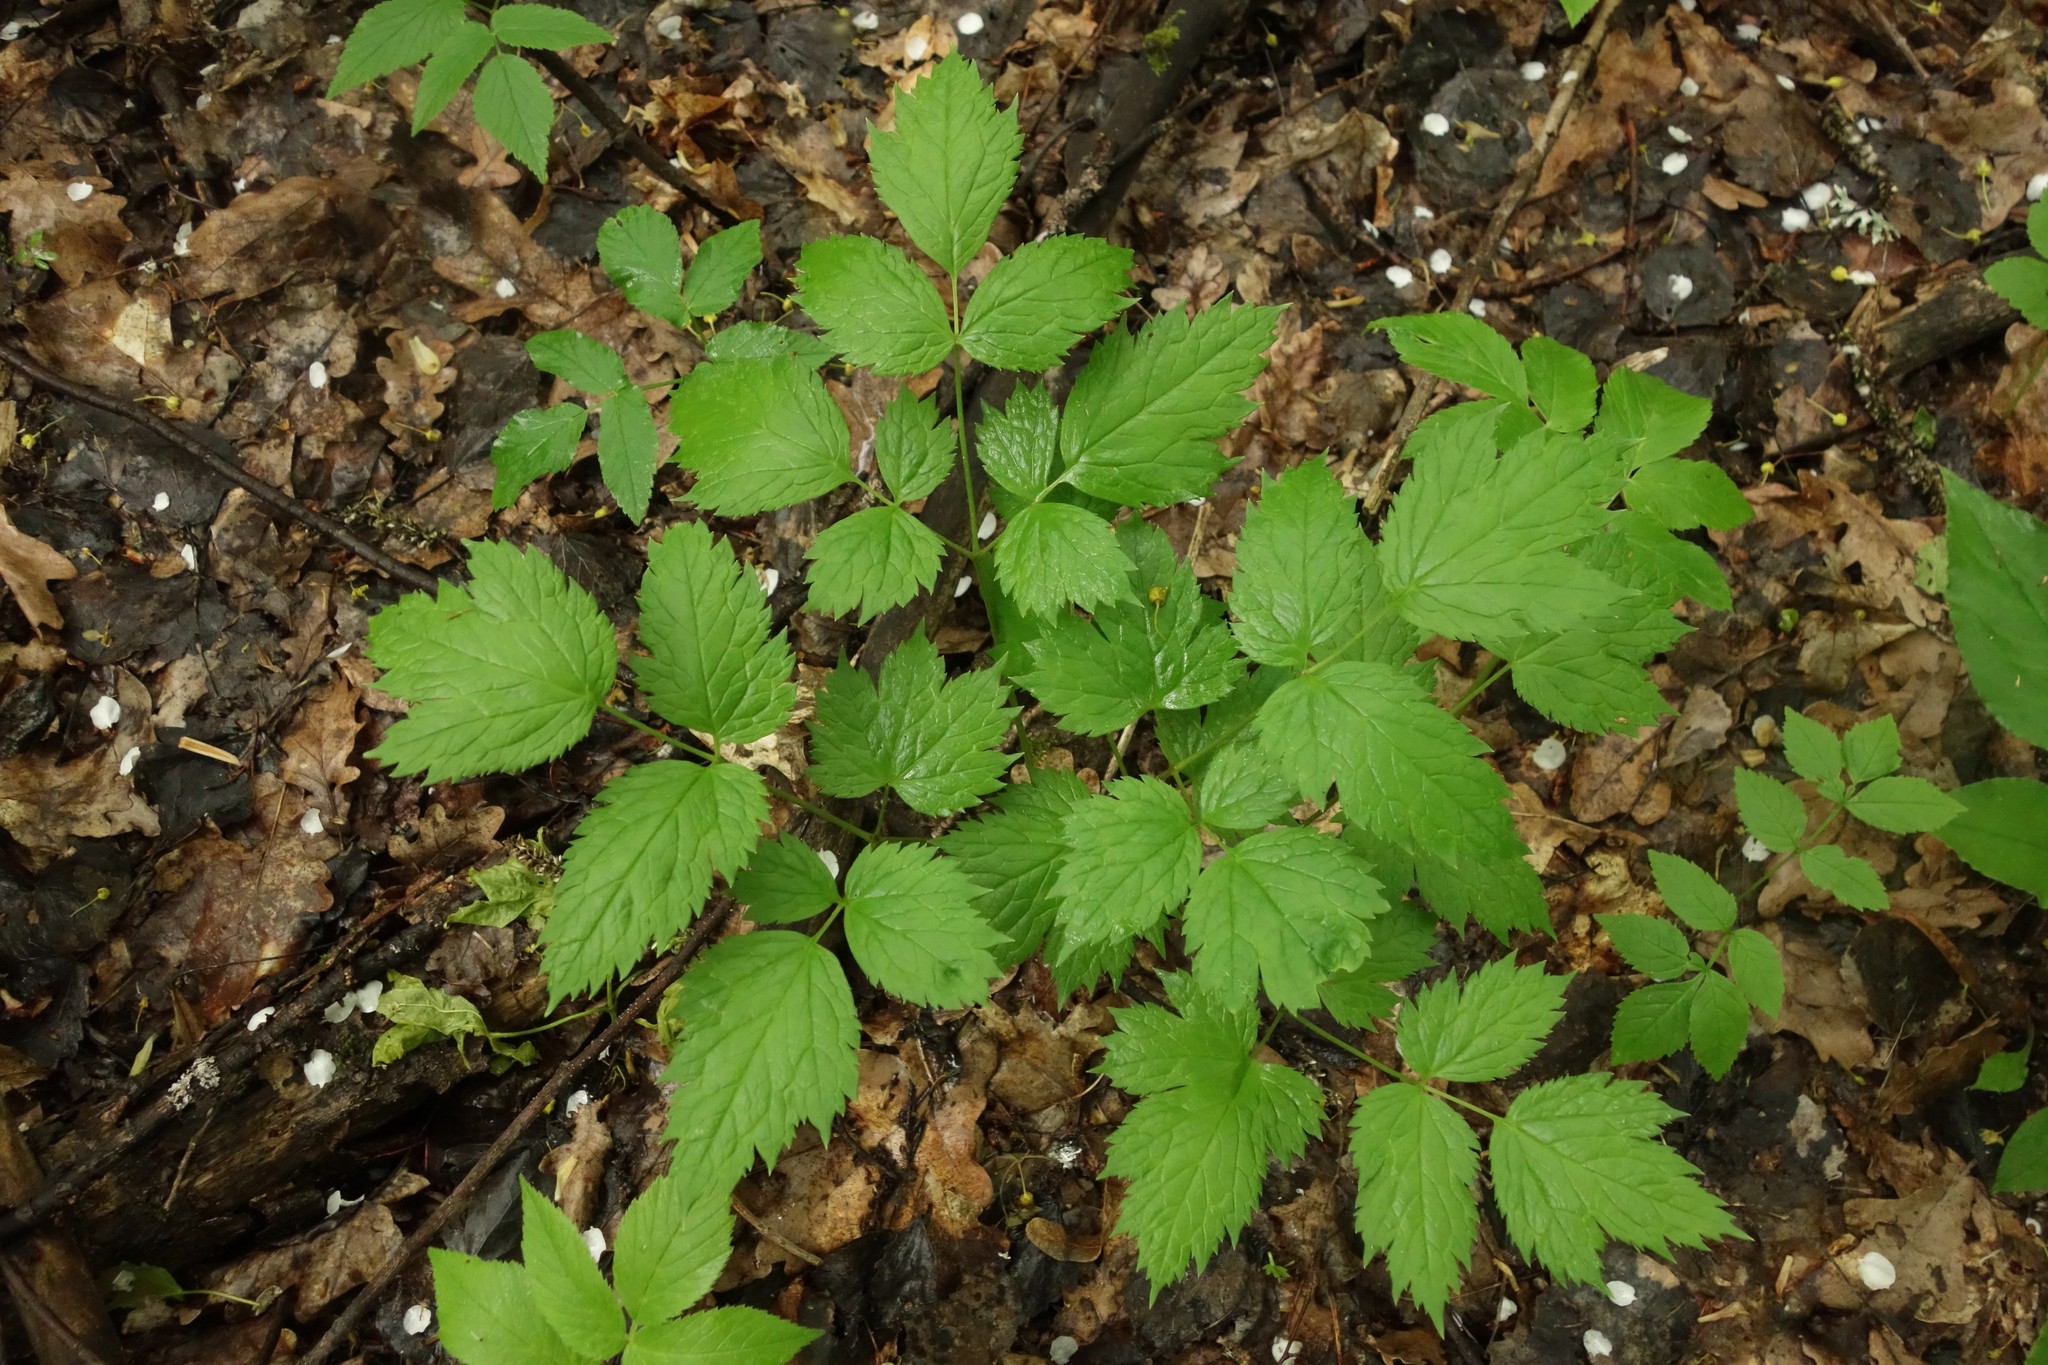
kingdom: Plantae
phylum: Tracheophyta
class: Magnoliopsida
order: Ranunculales
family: Ranunculaceae
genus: Actaea
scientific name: Actaea spicata
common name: Baneberry
